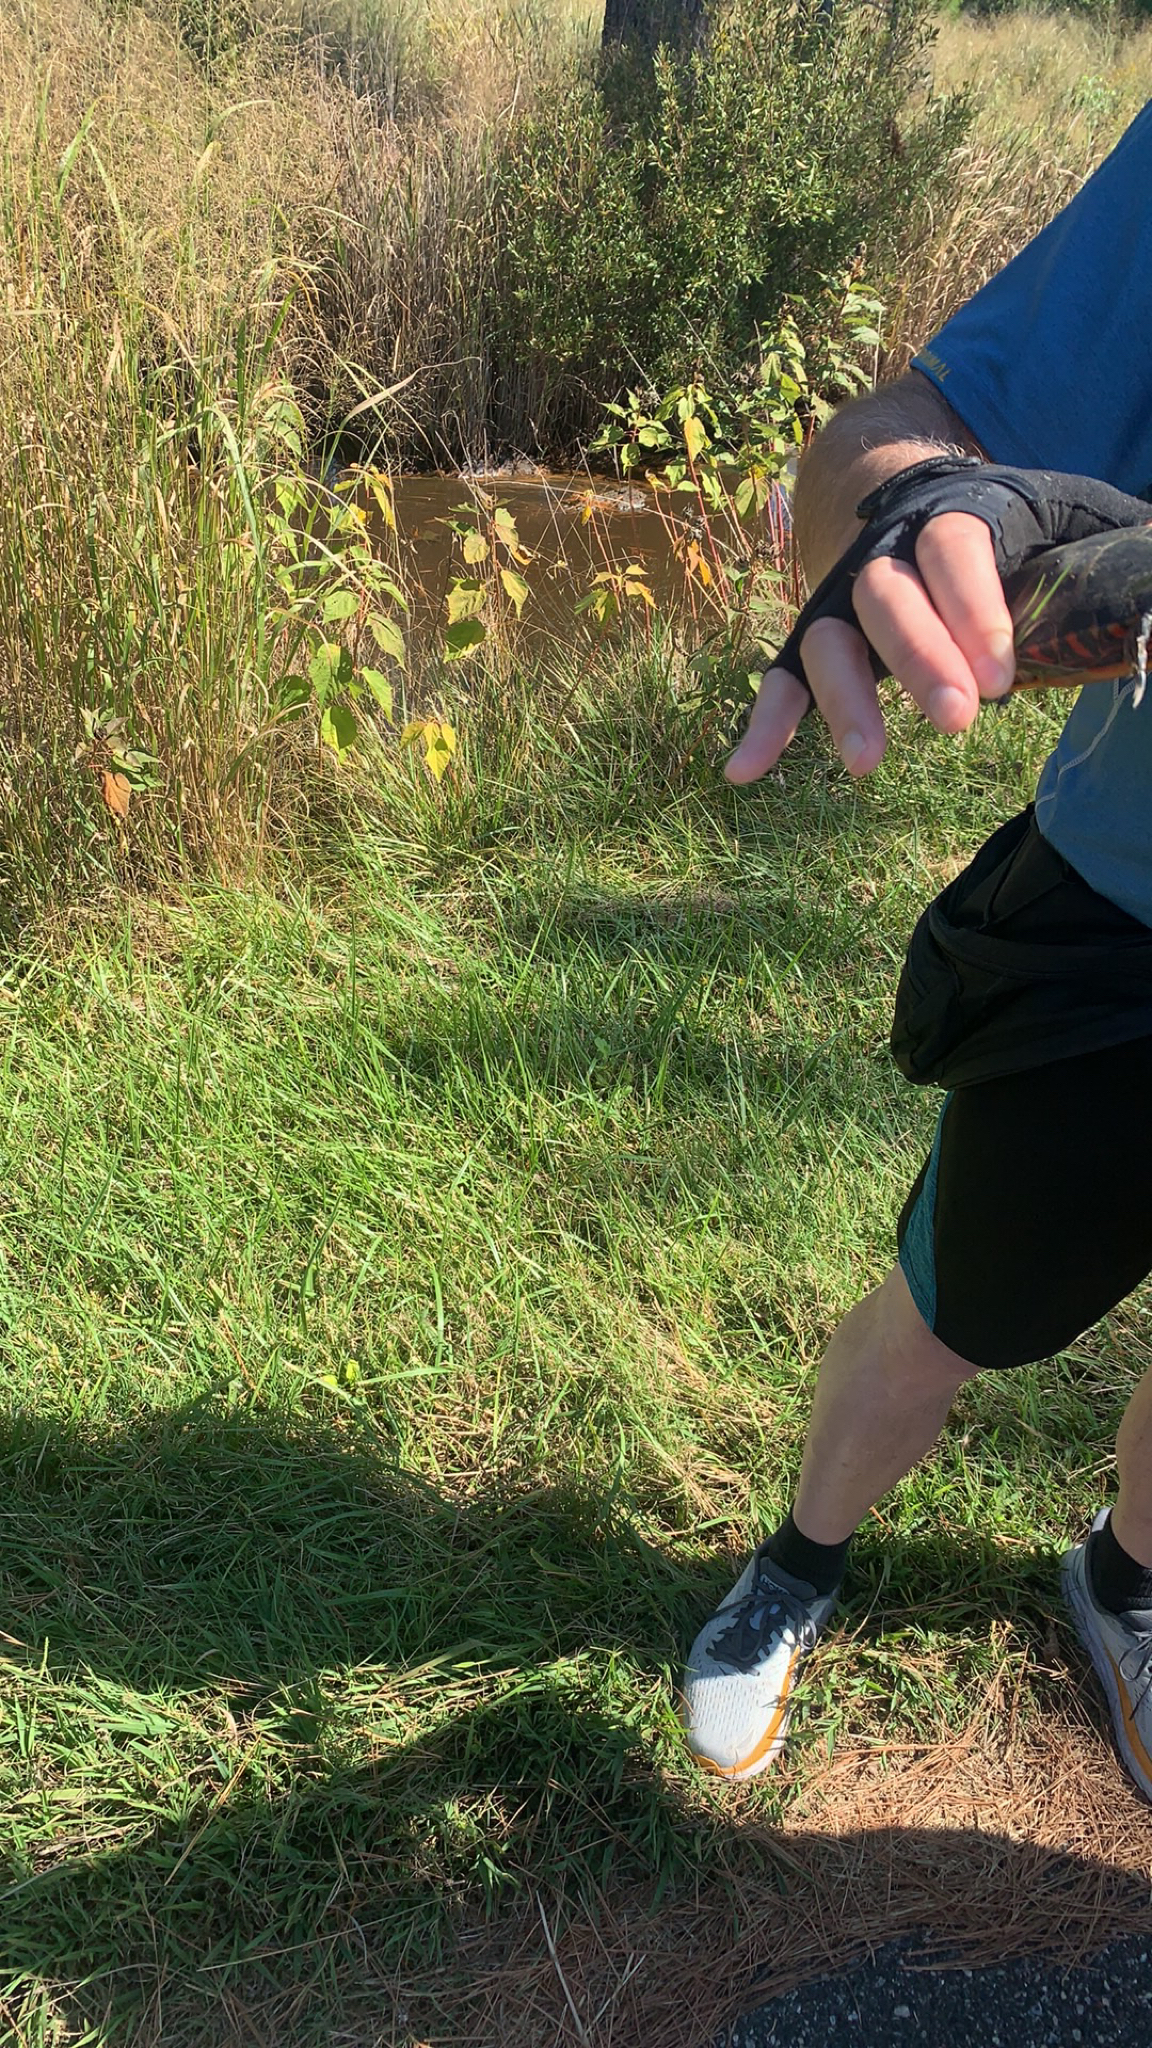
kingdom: Animalia
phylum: Chordata
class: Testudines
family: Emydidae
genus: Chrysemys
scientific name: Chrysemys picta
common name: Painted turtle
